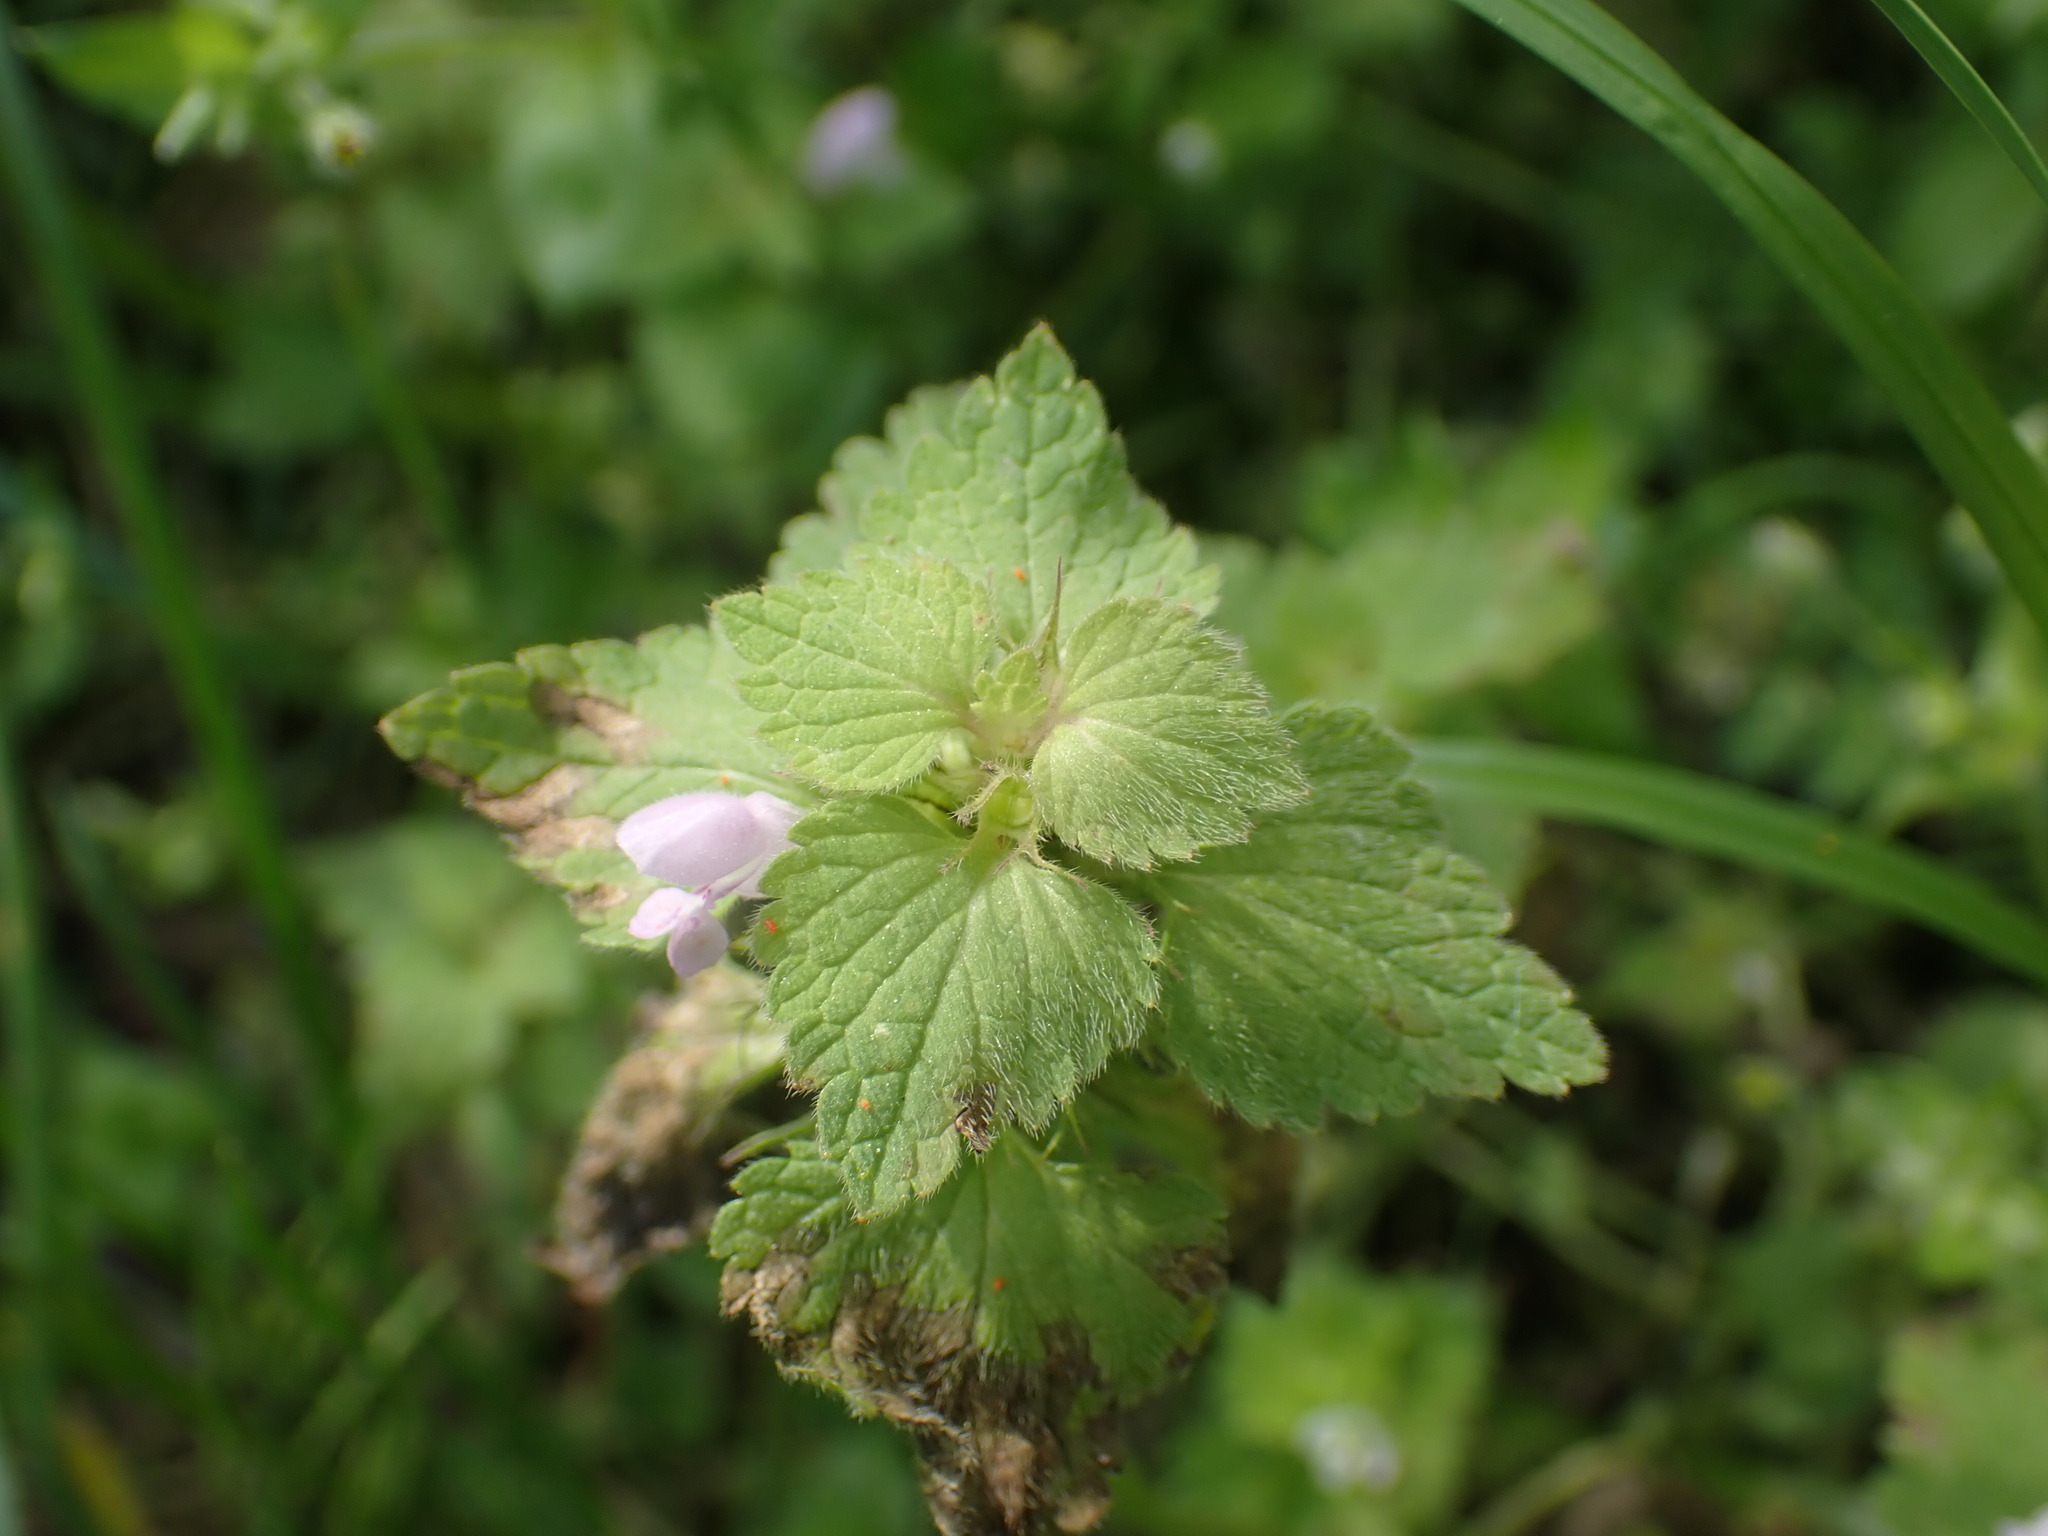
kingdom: Plantae
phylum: Tracheophyta
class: Magnoliopsida
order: Lamiales
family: Lamiaceae
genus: Lamium
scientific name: Lamium purpureum
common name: Red dead-nettle
